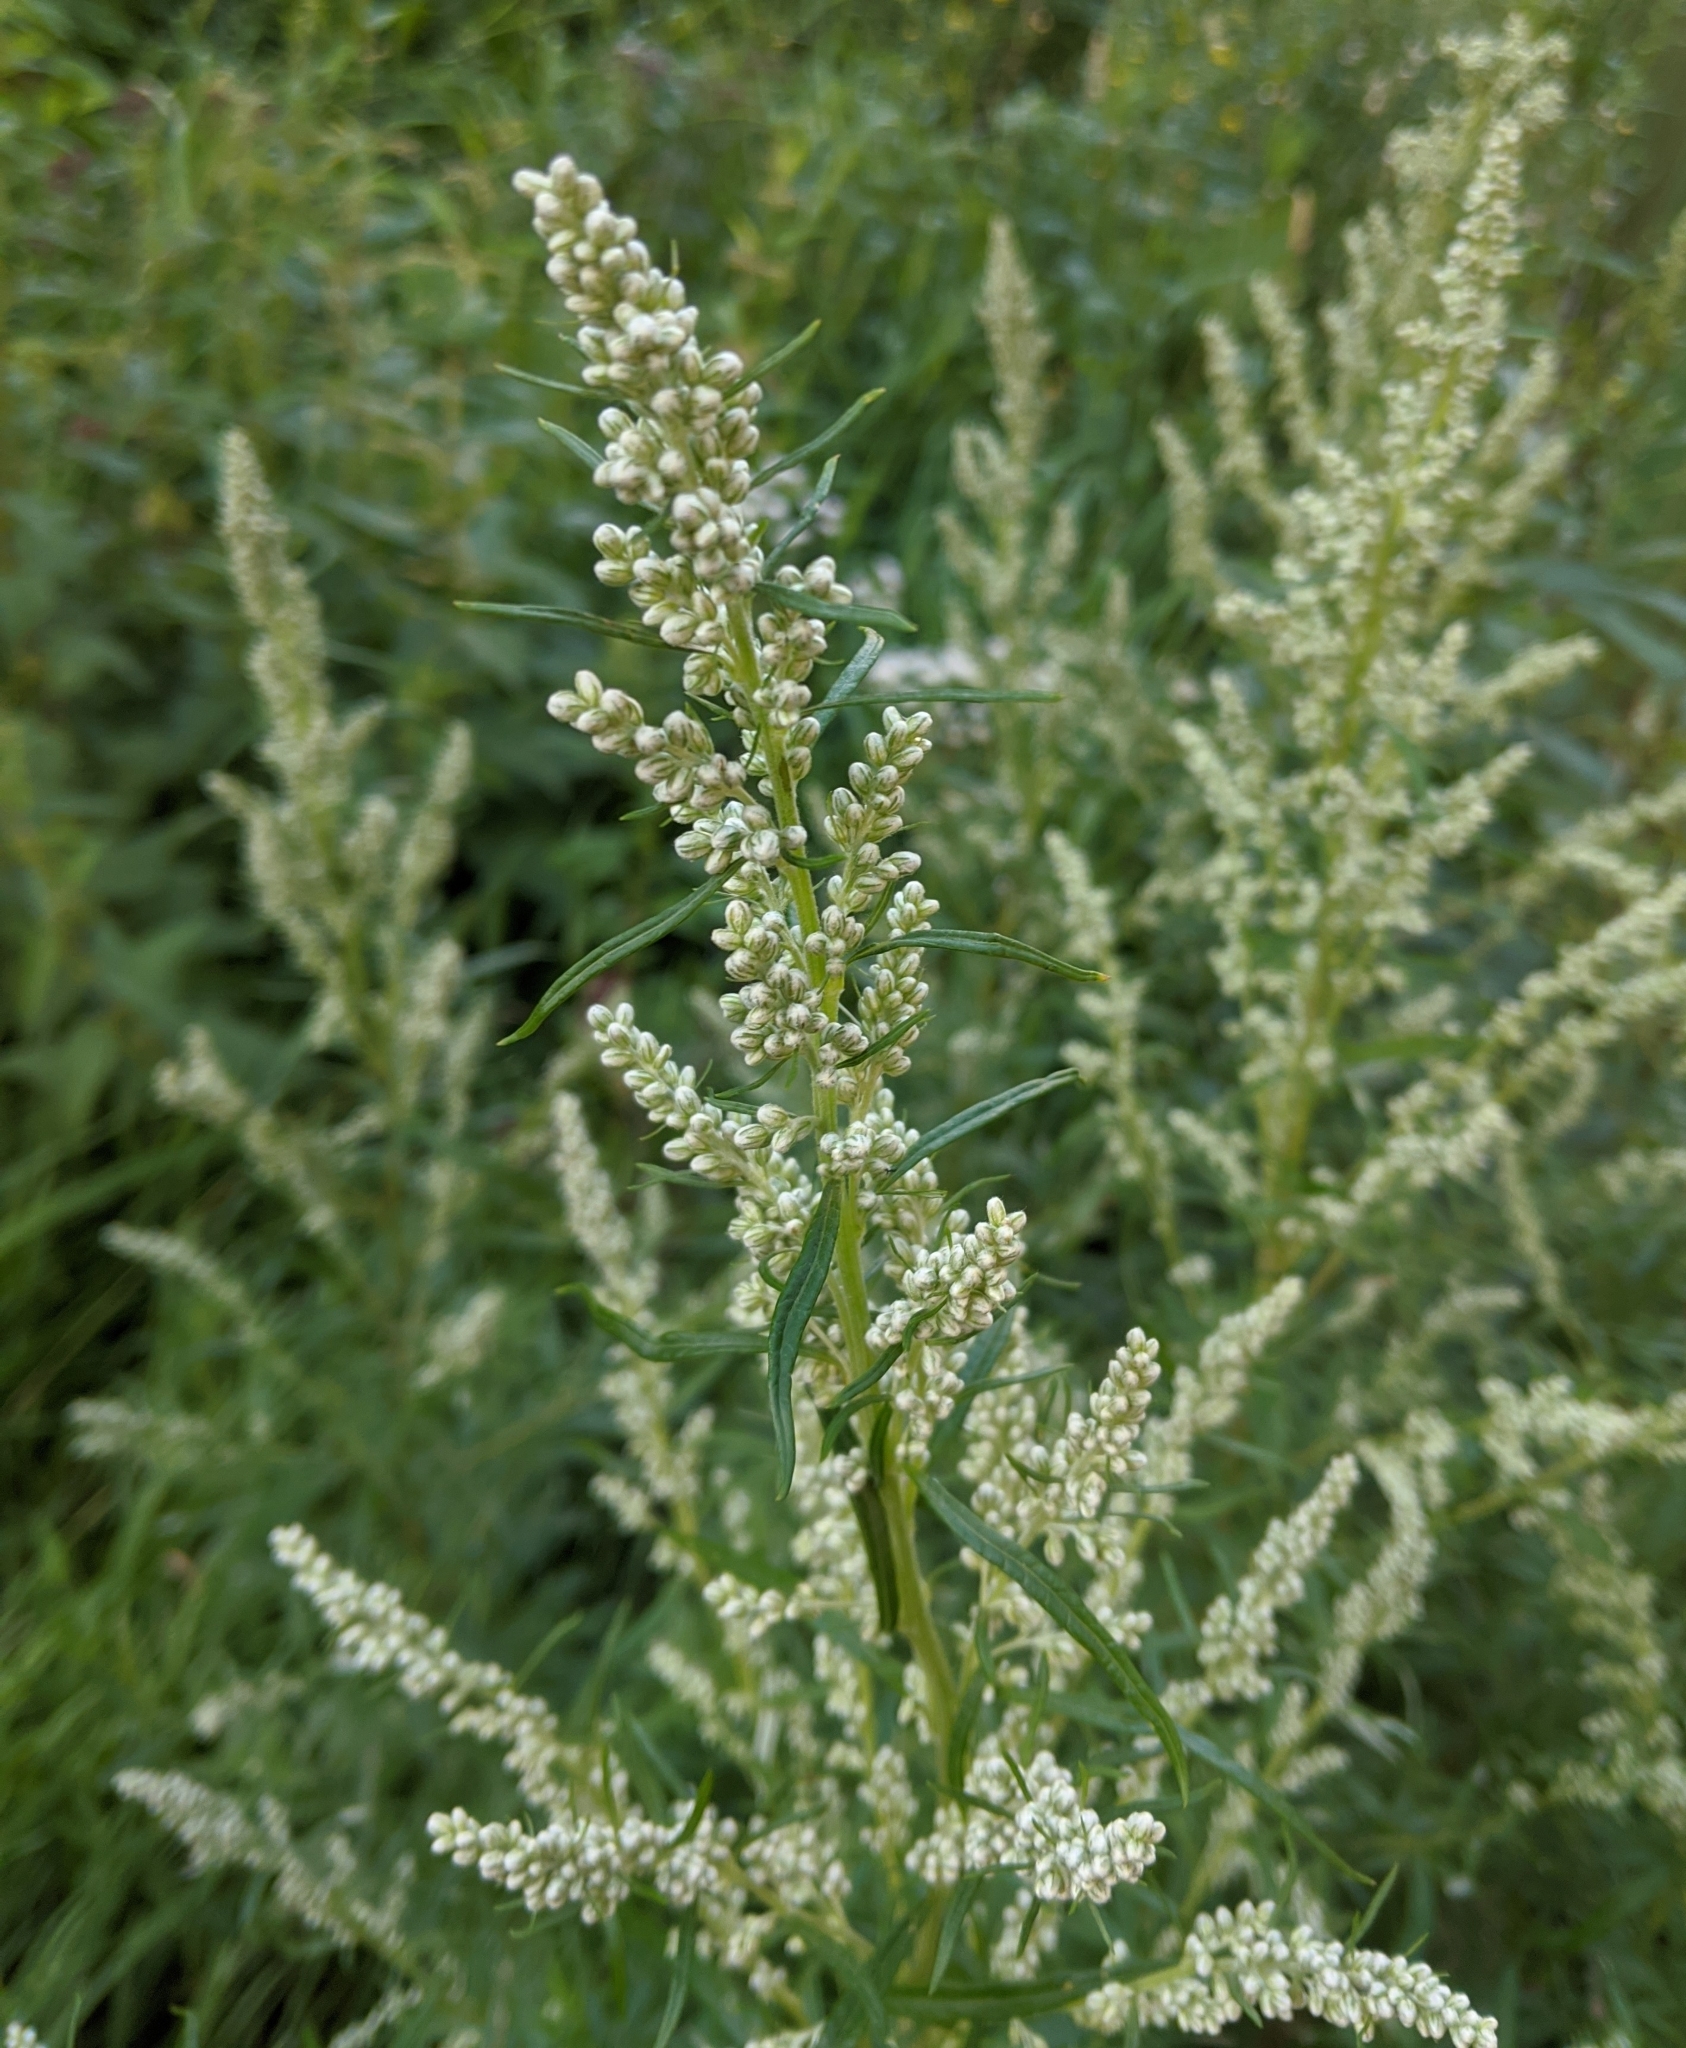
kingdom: Plantae
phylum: Tracheophyta
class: Magnoliopsida
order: Asterales
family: Asteraceae
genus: Artemisia
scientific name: Artemisia vulgaris
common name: Mugwort
